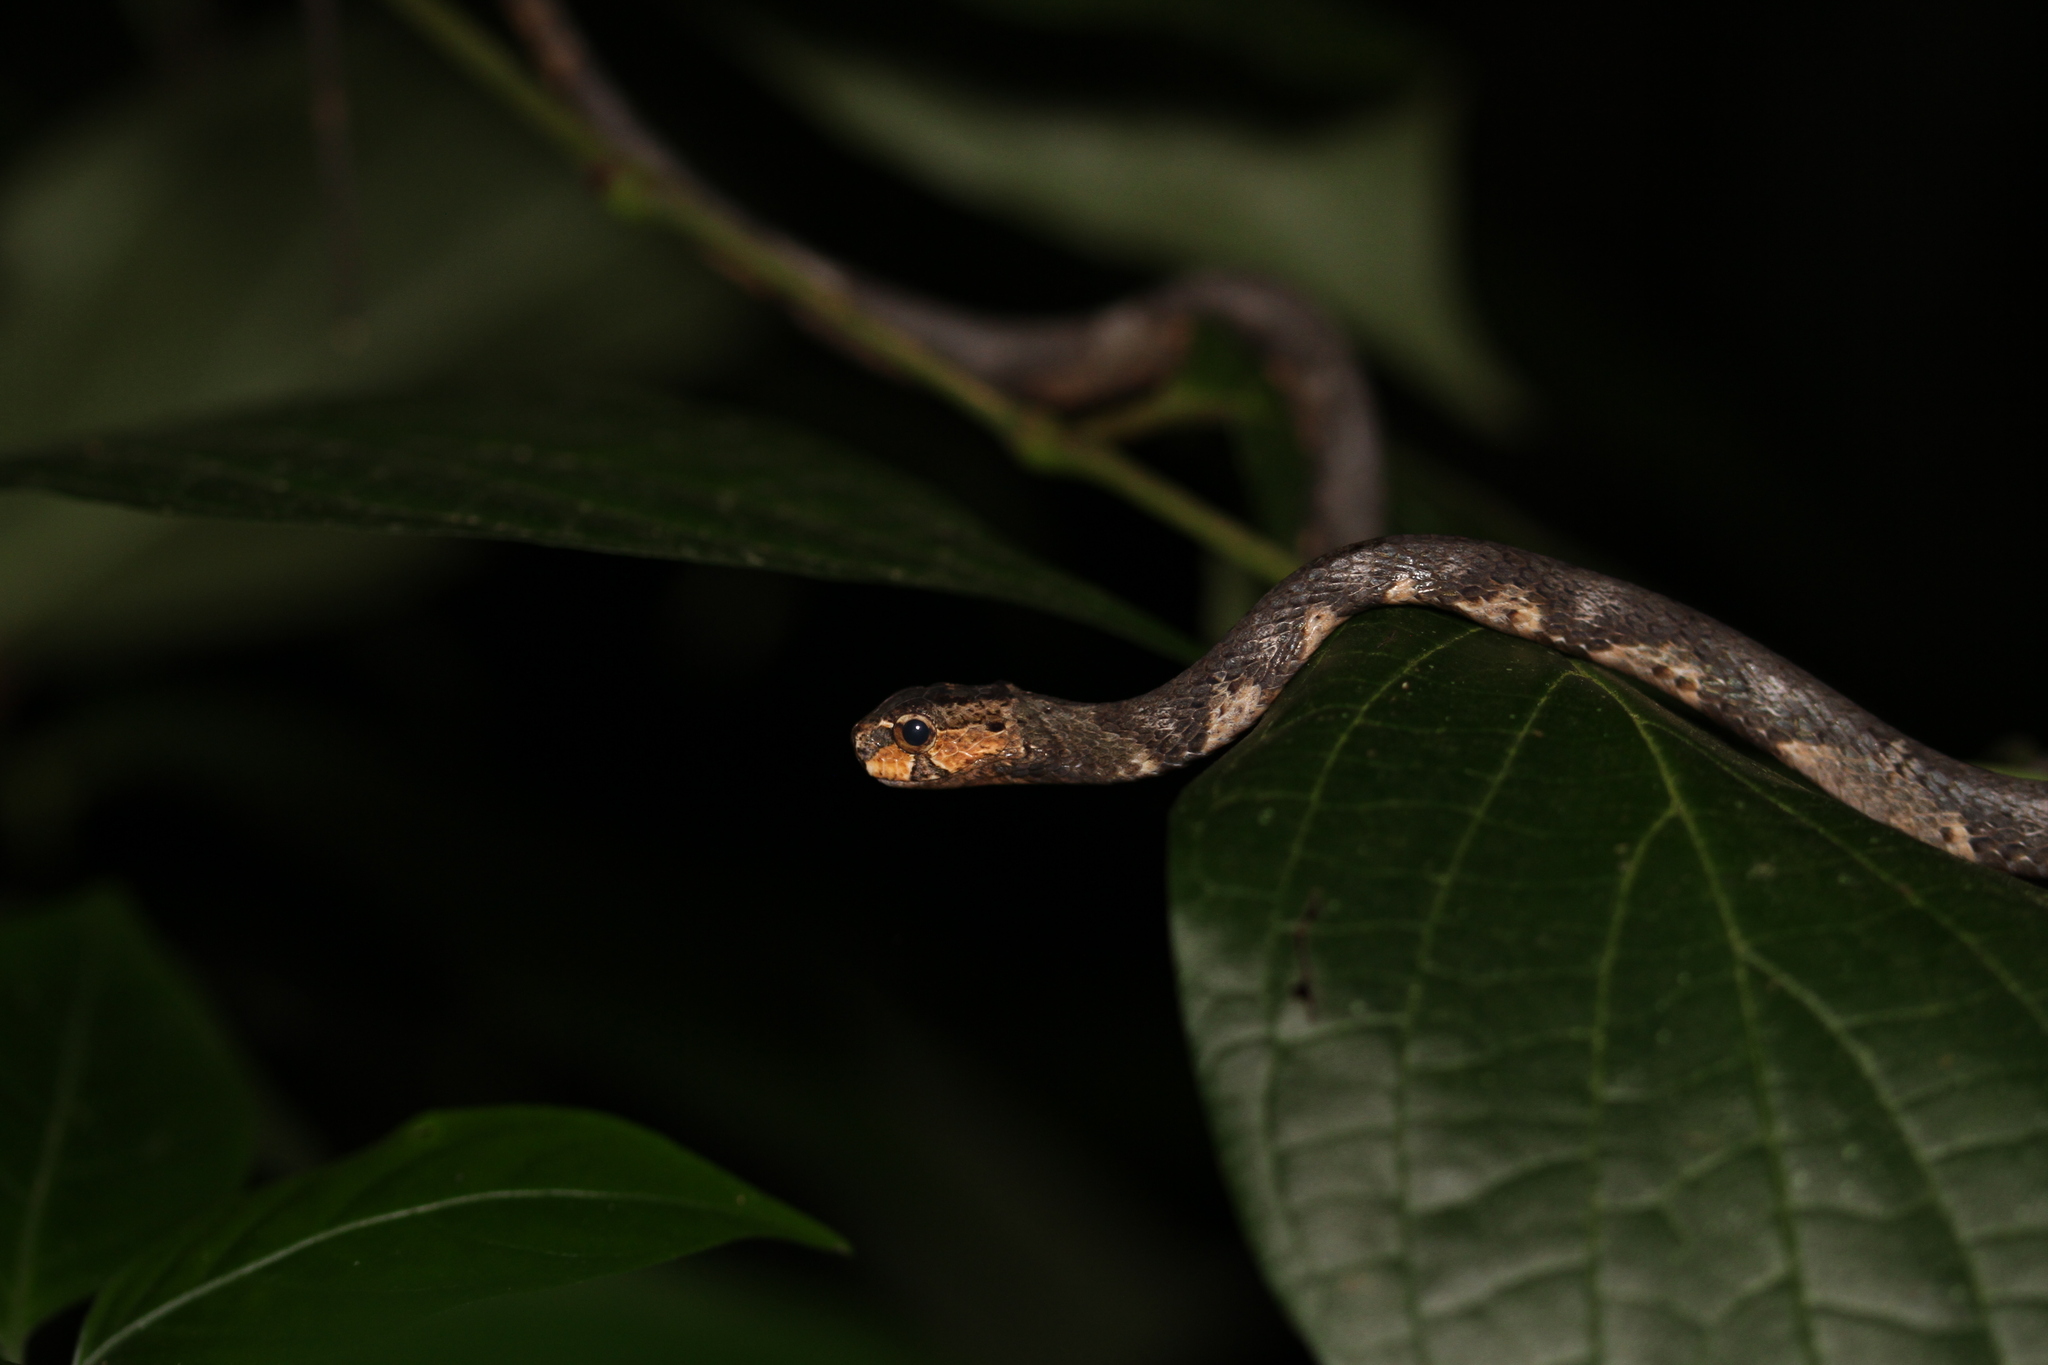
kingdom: Animalia
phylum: Chordata
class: Squamata
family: Pareidae
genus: Aplopeltura
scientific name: Aplopeltura boa
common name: Blunthead slug snake
